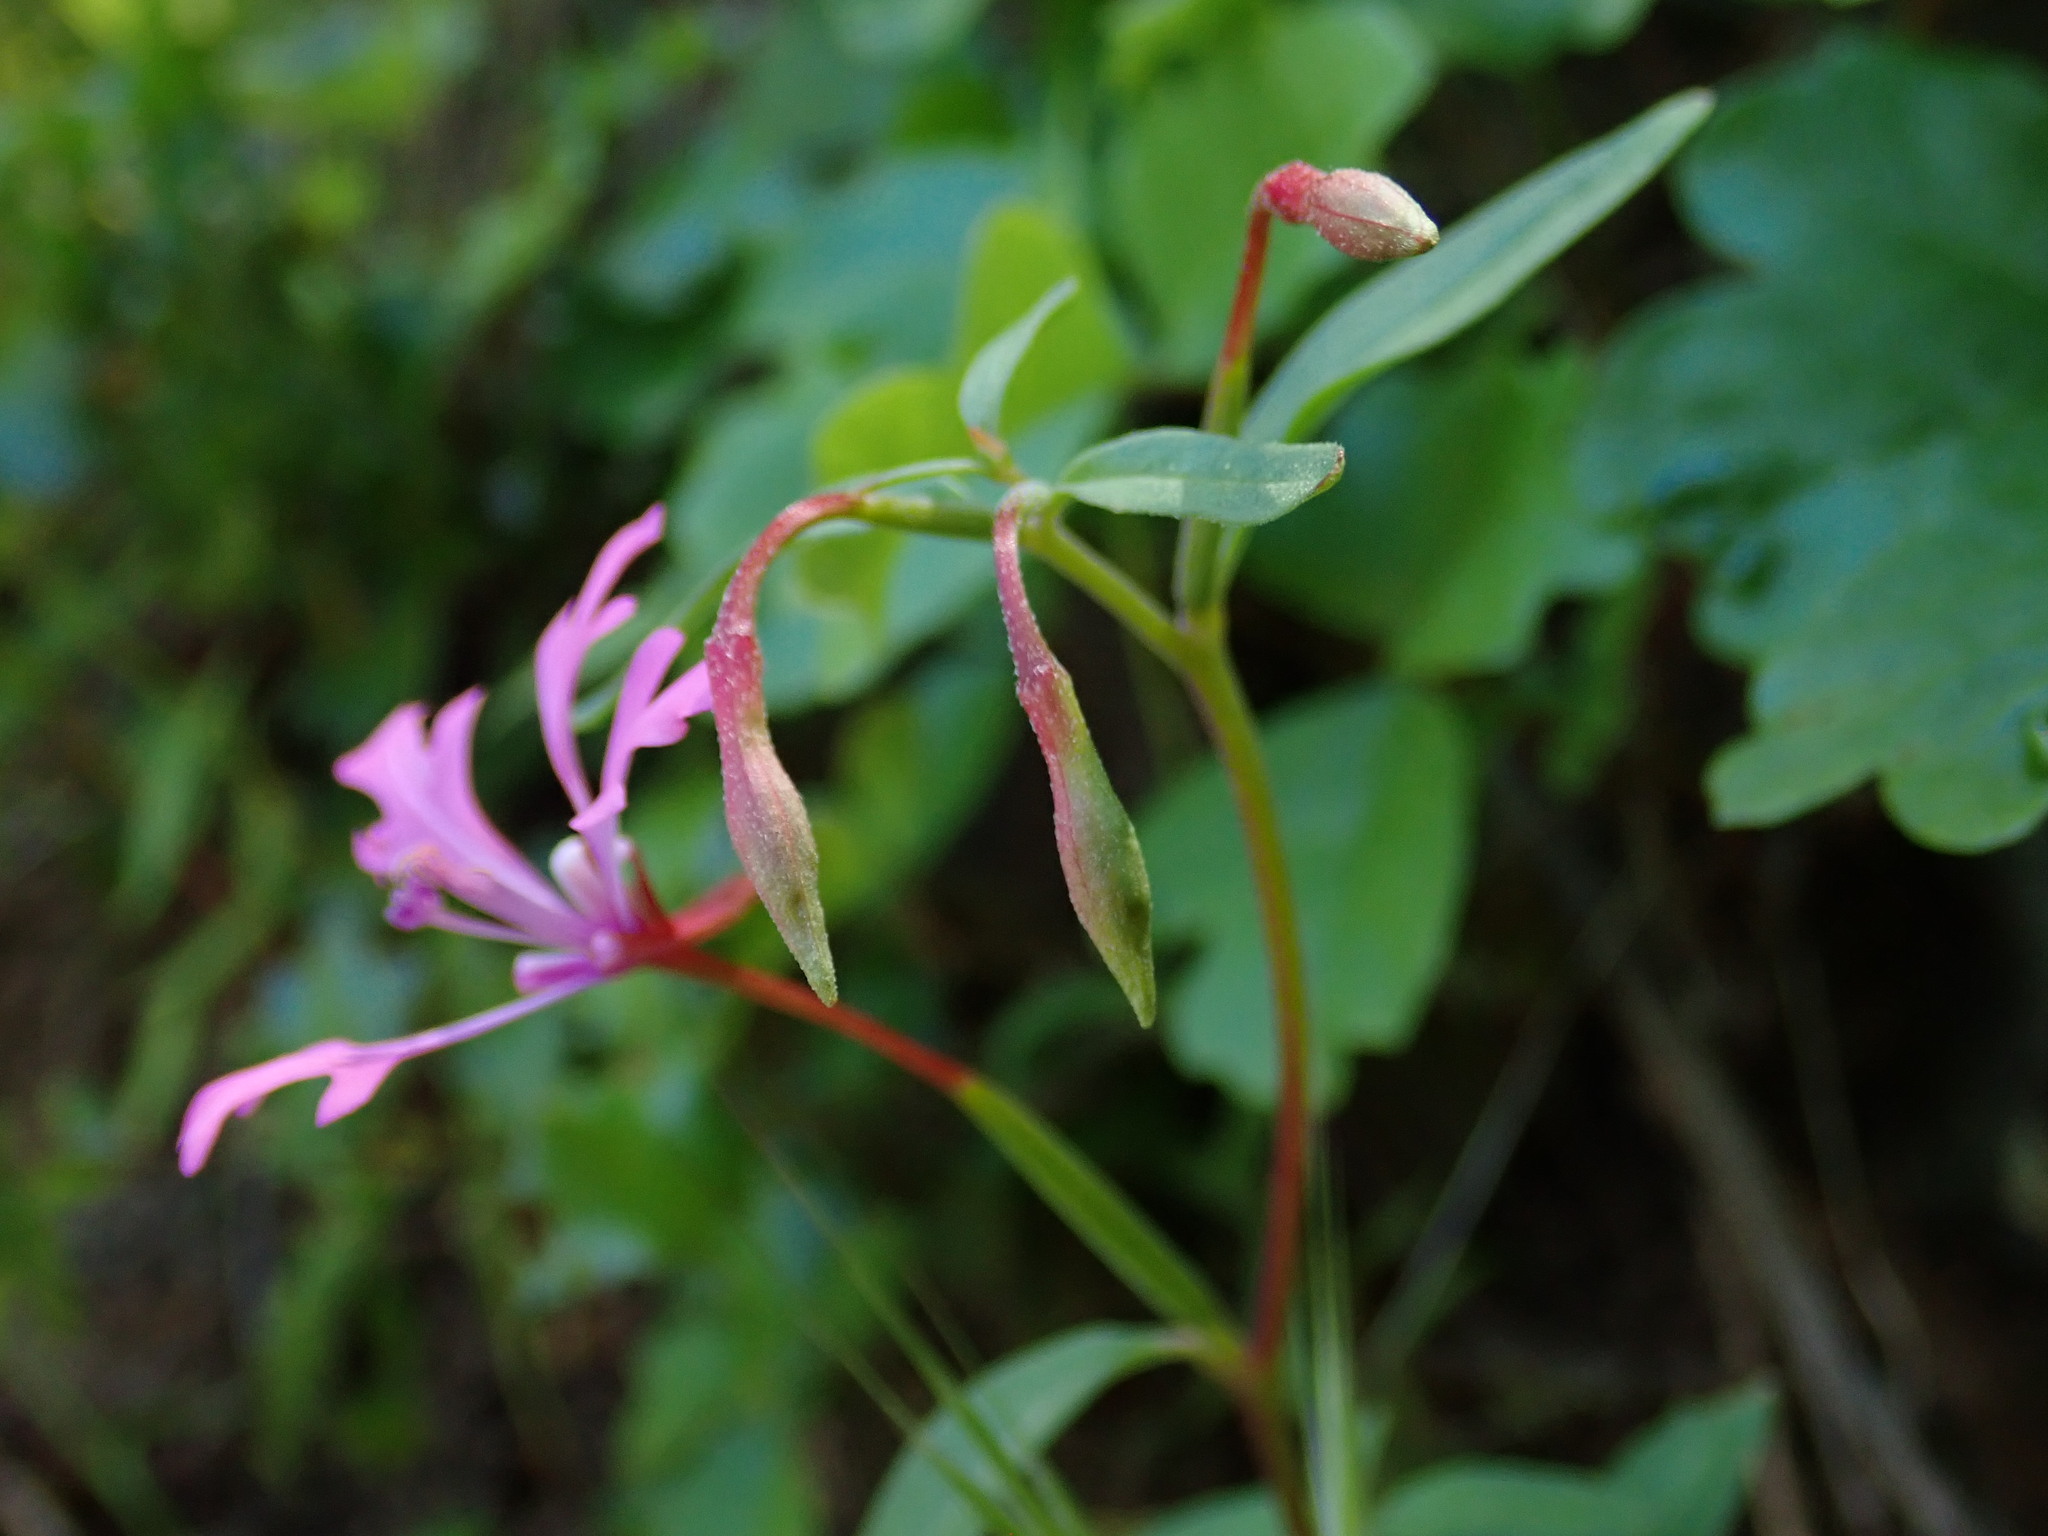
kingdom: Plantae
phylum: Tracheophyta
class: Magnoliopsida
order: Myrtales
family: Onagraceae
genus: Clarkia
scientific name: Clarkia concinna
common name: Red-ribbons
